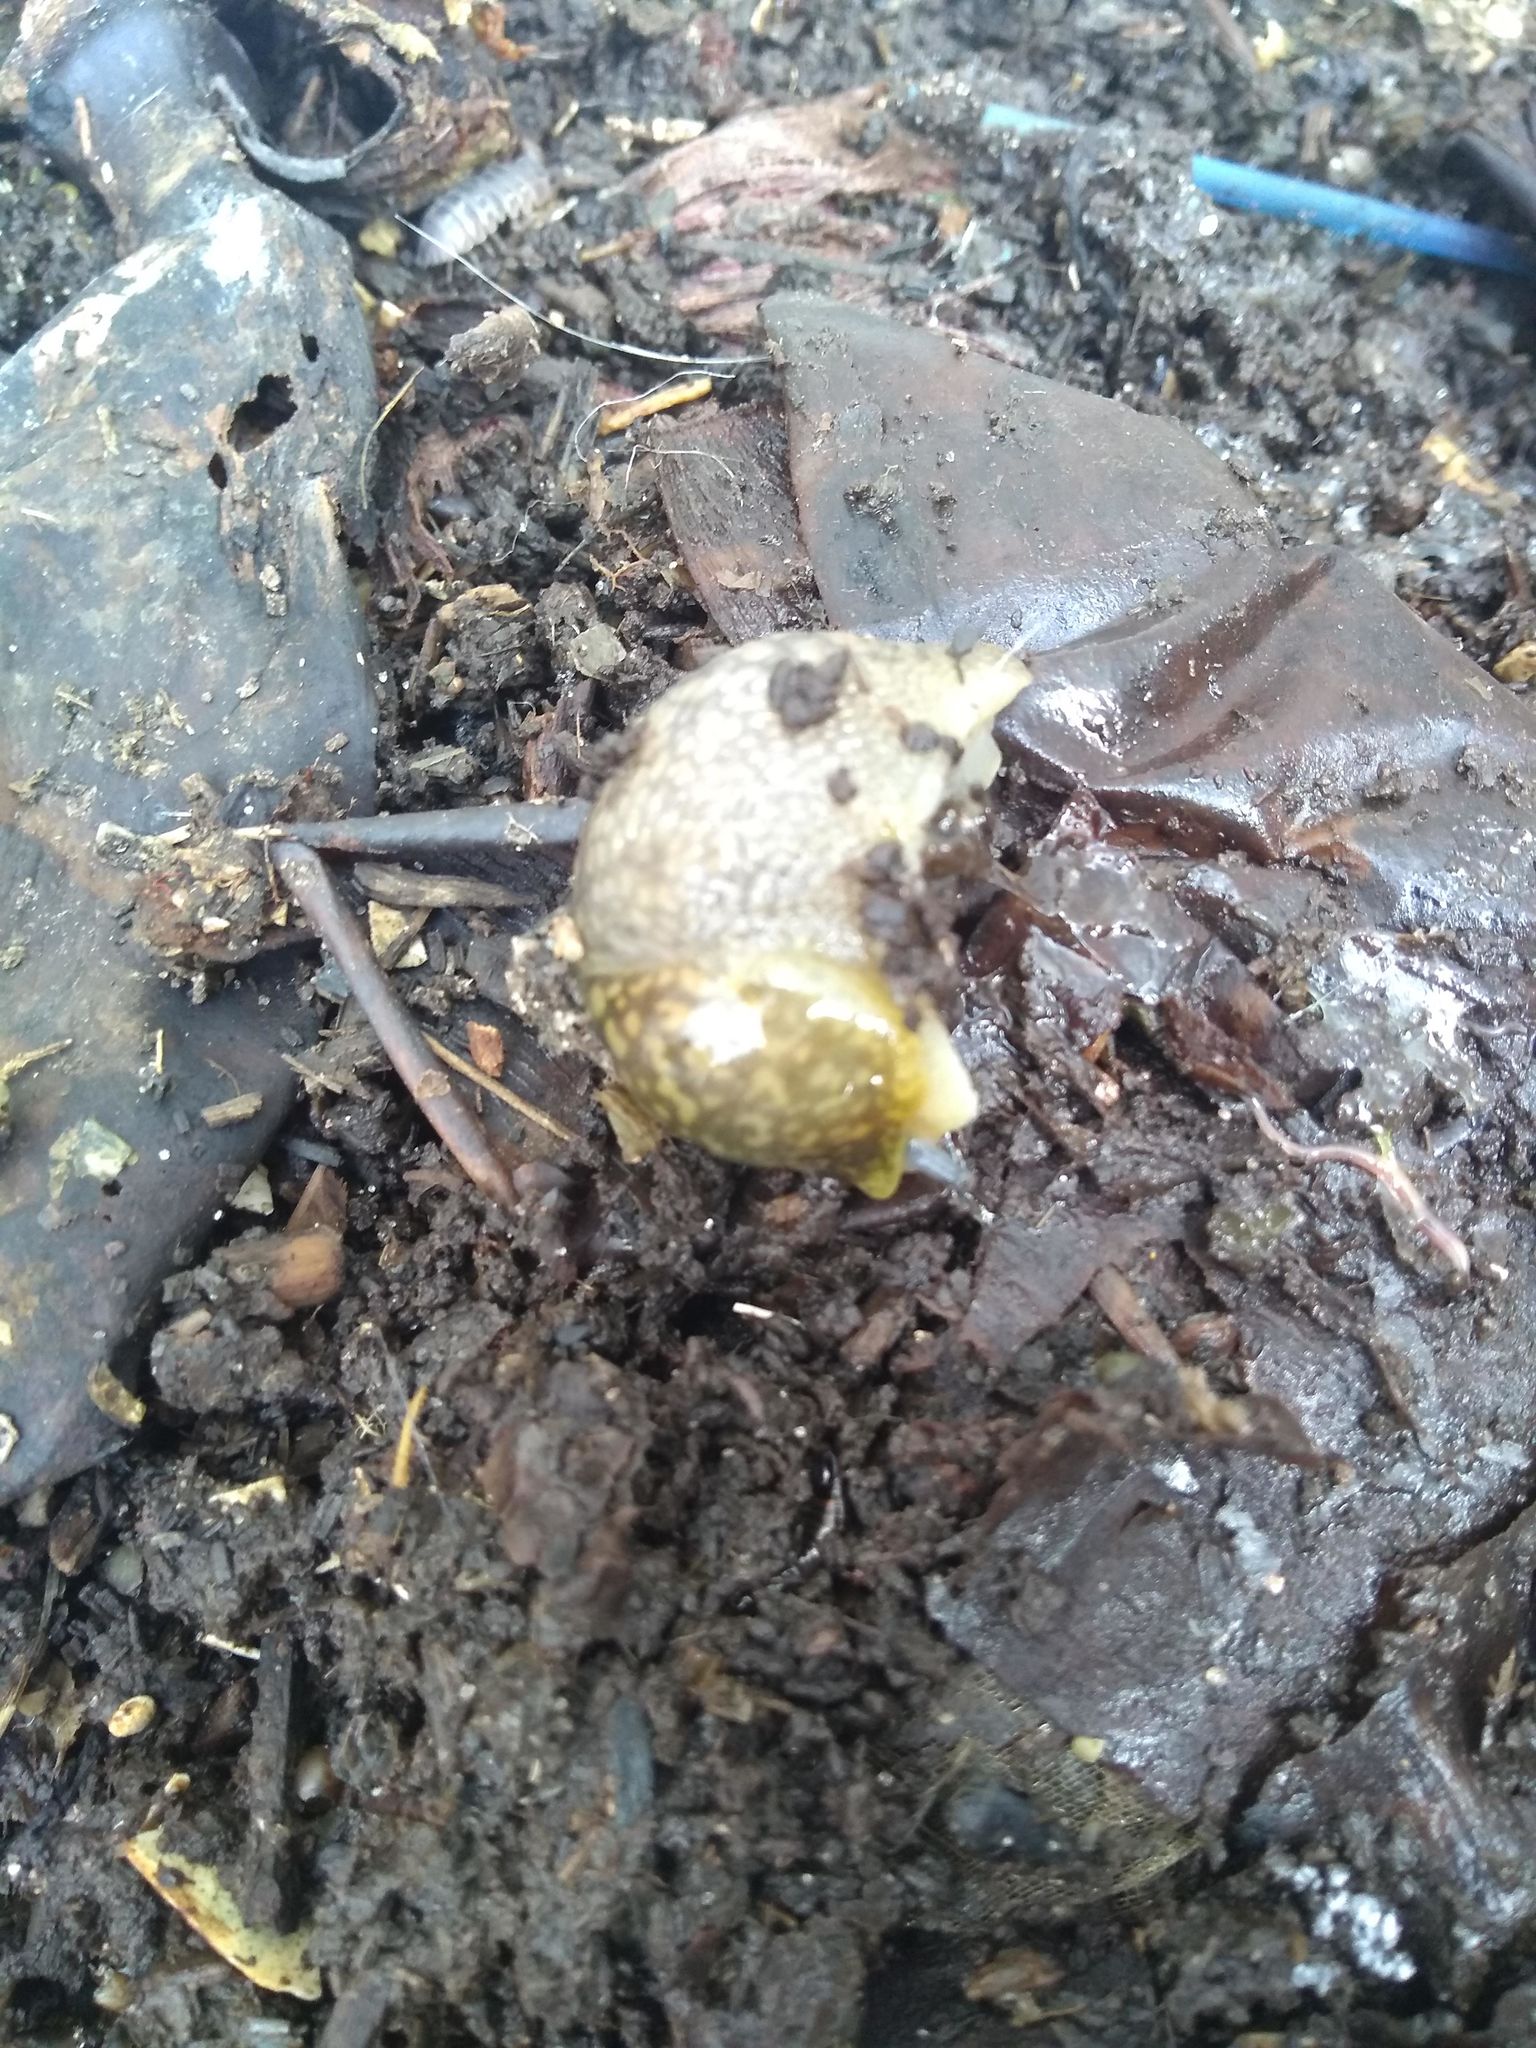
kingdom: Animalia
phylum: Mollusca
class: Gastropoda
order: Stylommatophora
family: Limacidae
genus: Limacus
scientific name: Limacus flavus
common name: Yellow gardenslug
